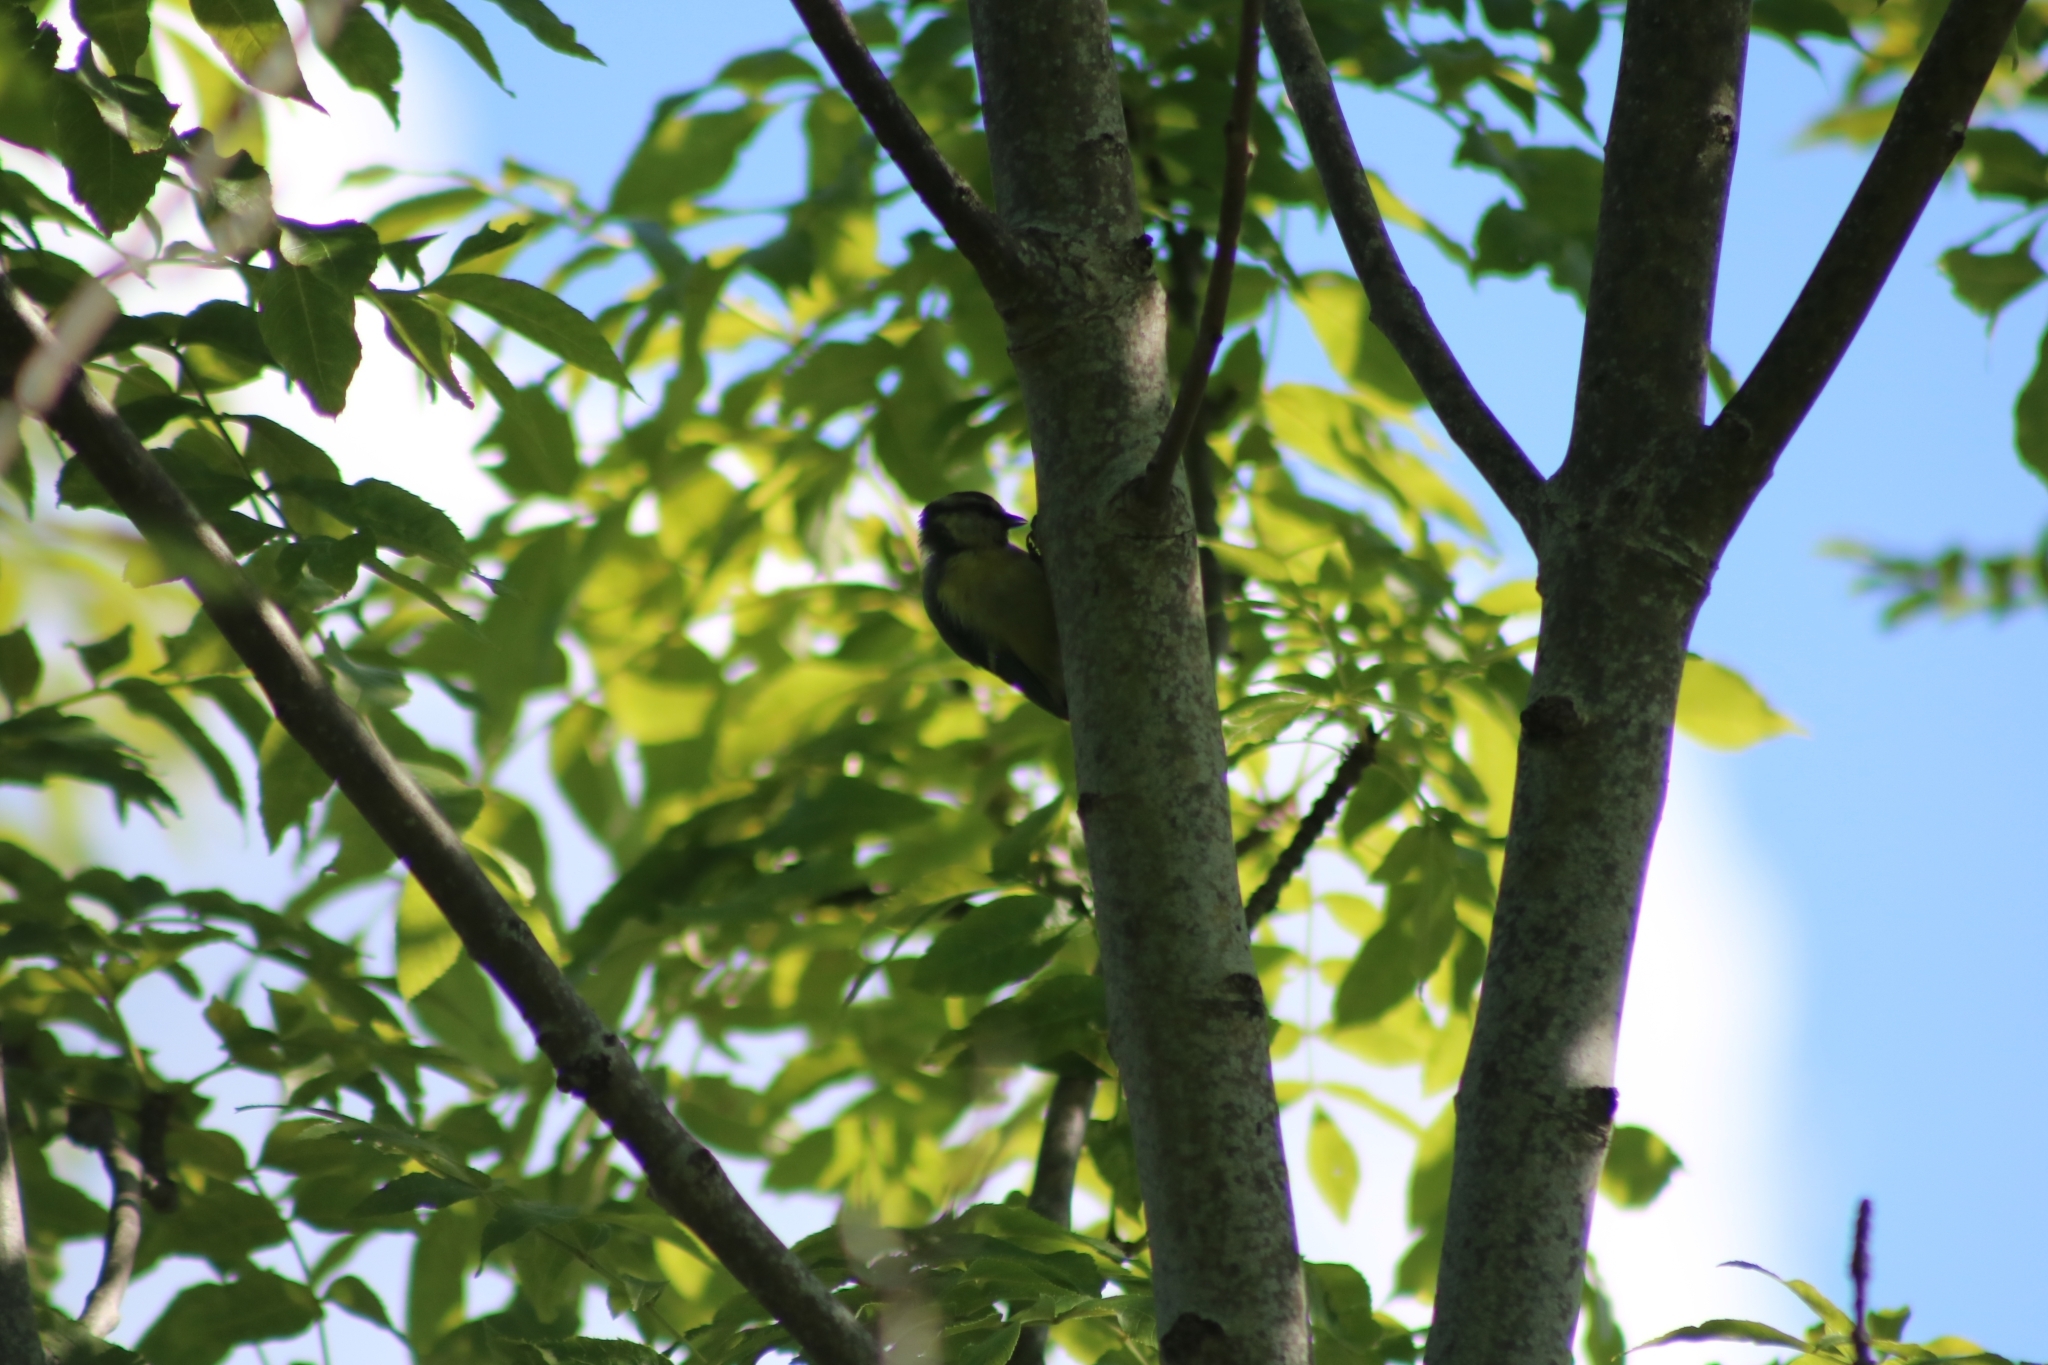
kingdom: Animalia
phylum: Chordata
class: Aves
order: Passeriformes
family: Paridae
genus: Cyanistes
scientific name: Cyanistes caeruleus
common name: Eurasian blue tit
